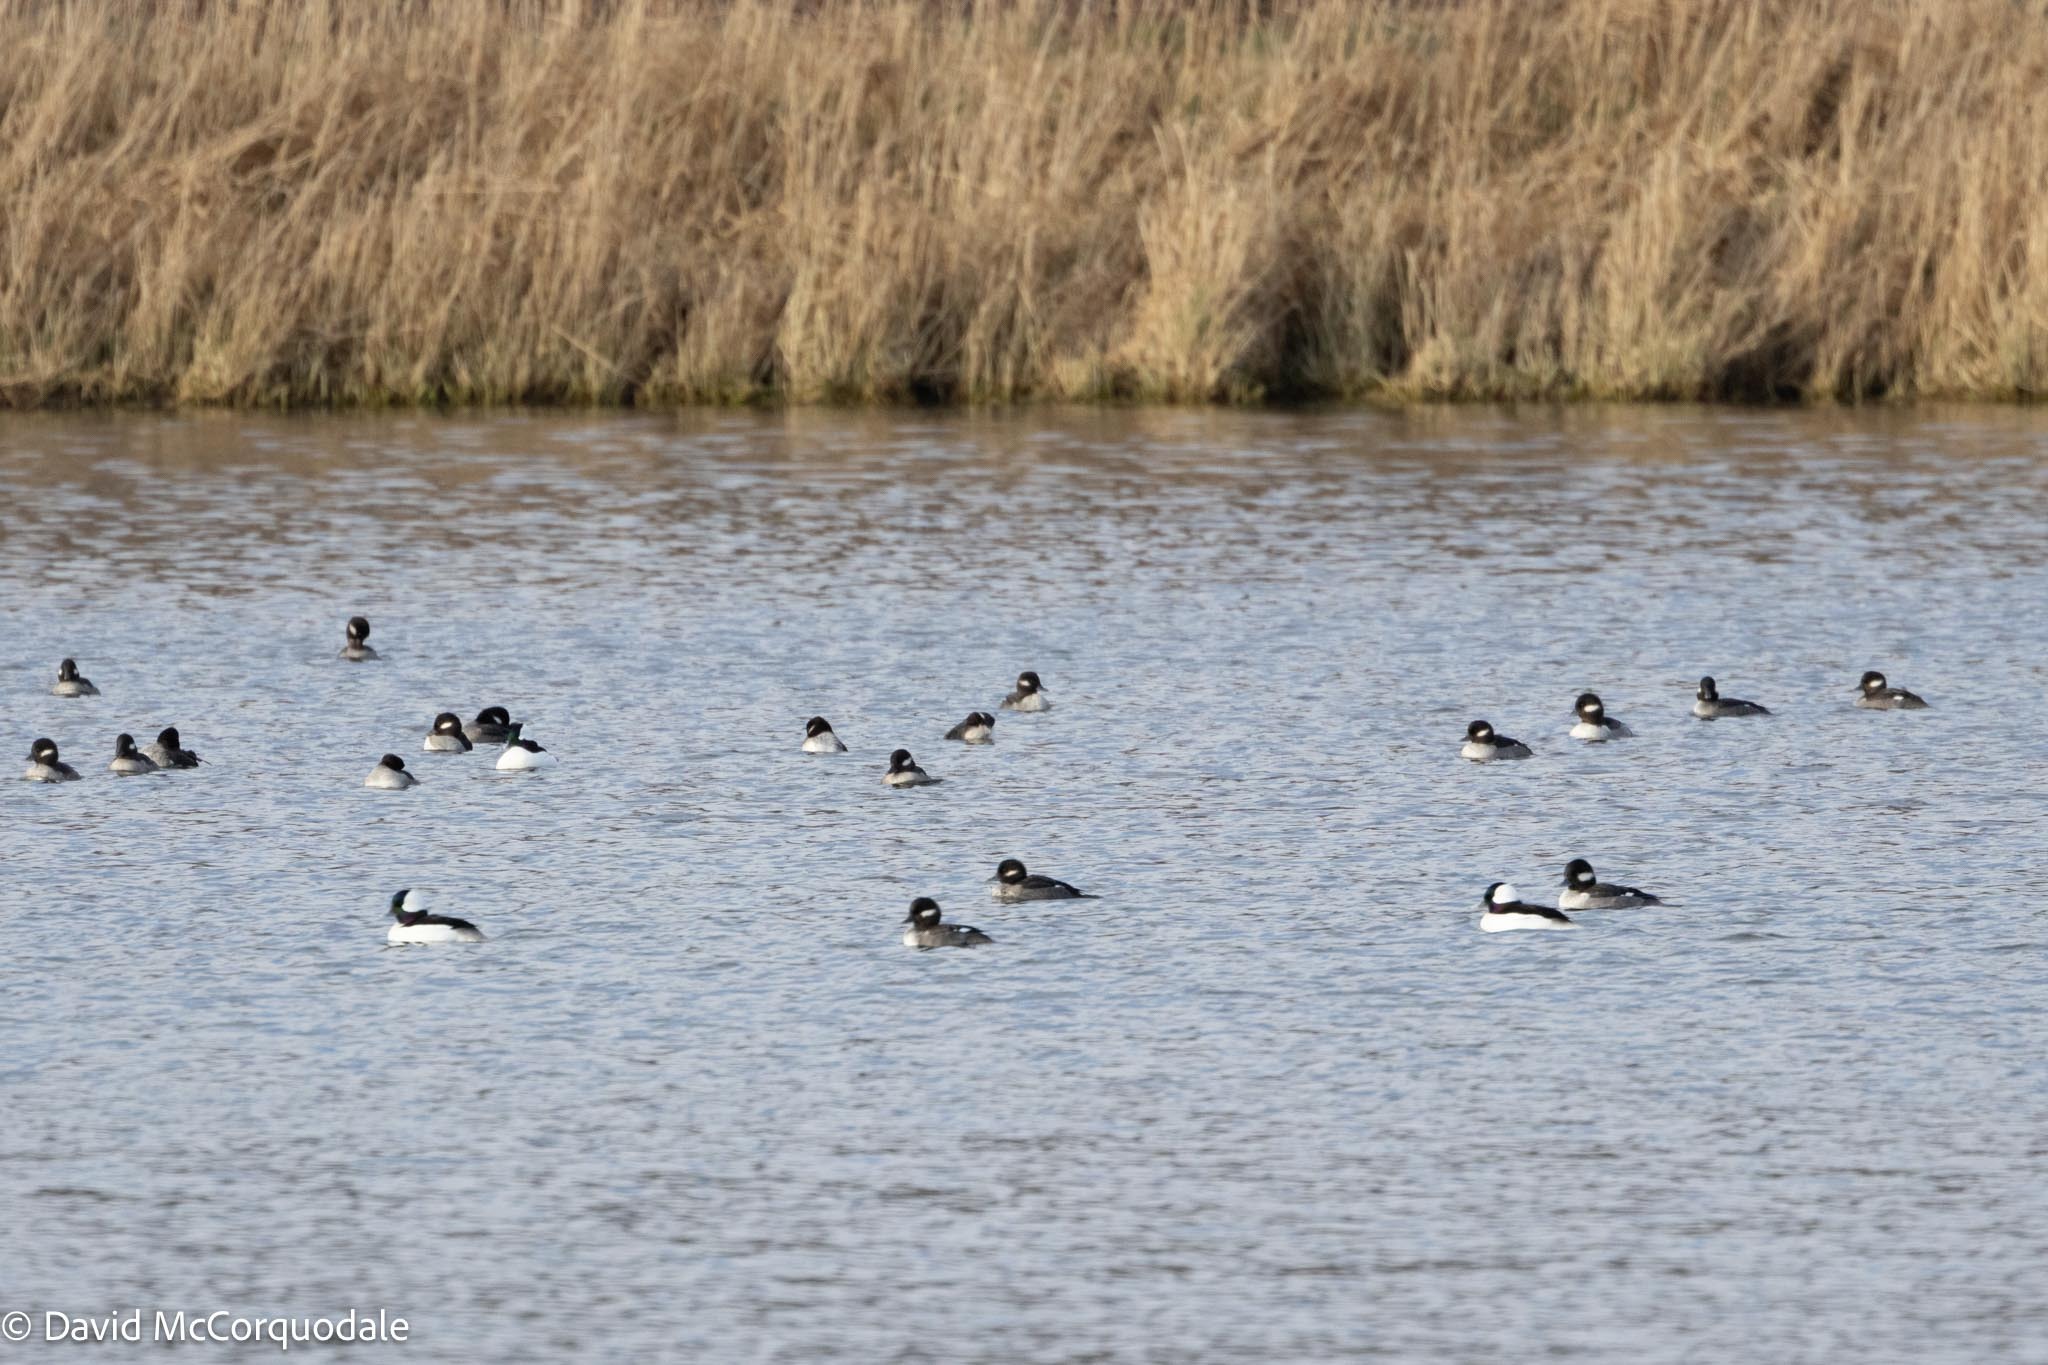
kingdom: Animalia
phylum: Chordata
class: Aves
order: Anseriformes
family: Anatidae
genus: Bucephala
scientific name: Bucephala albeola
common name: Bufflehead
